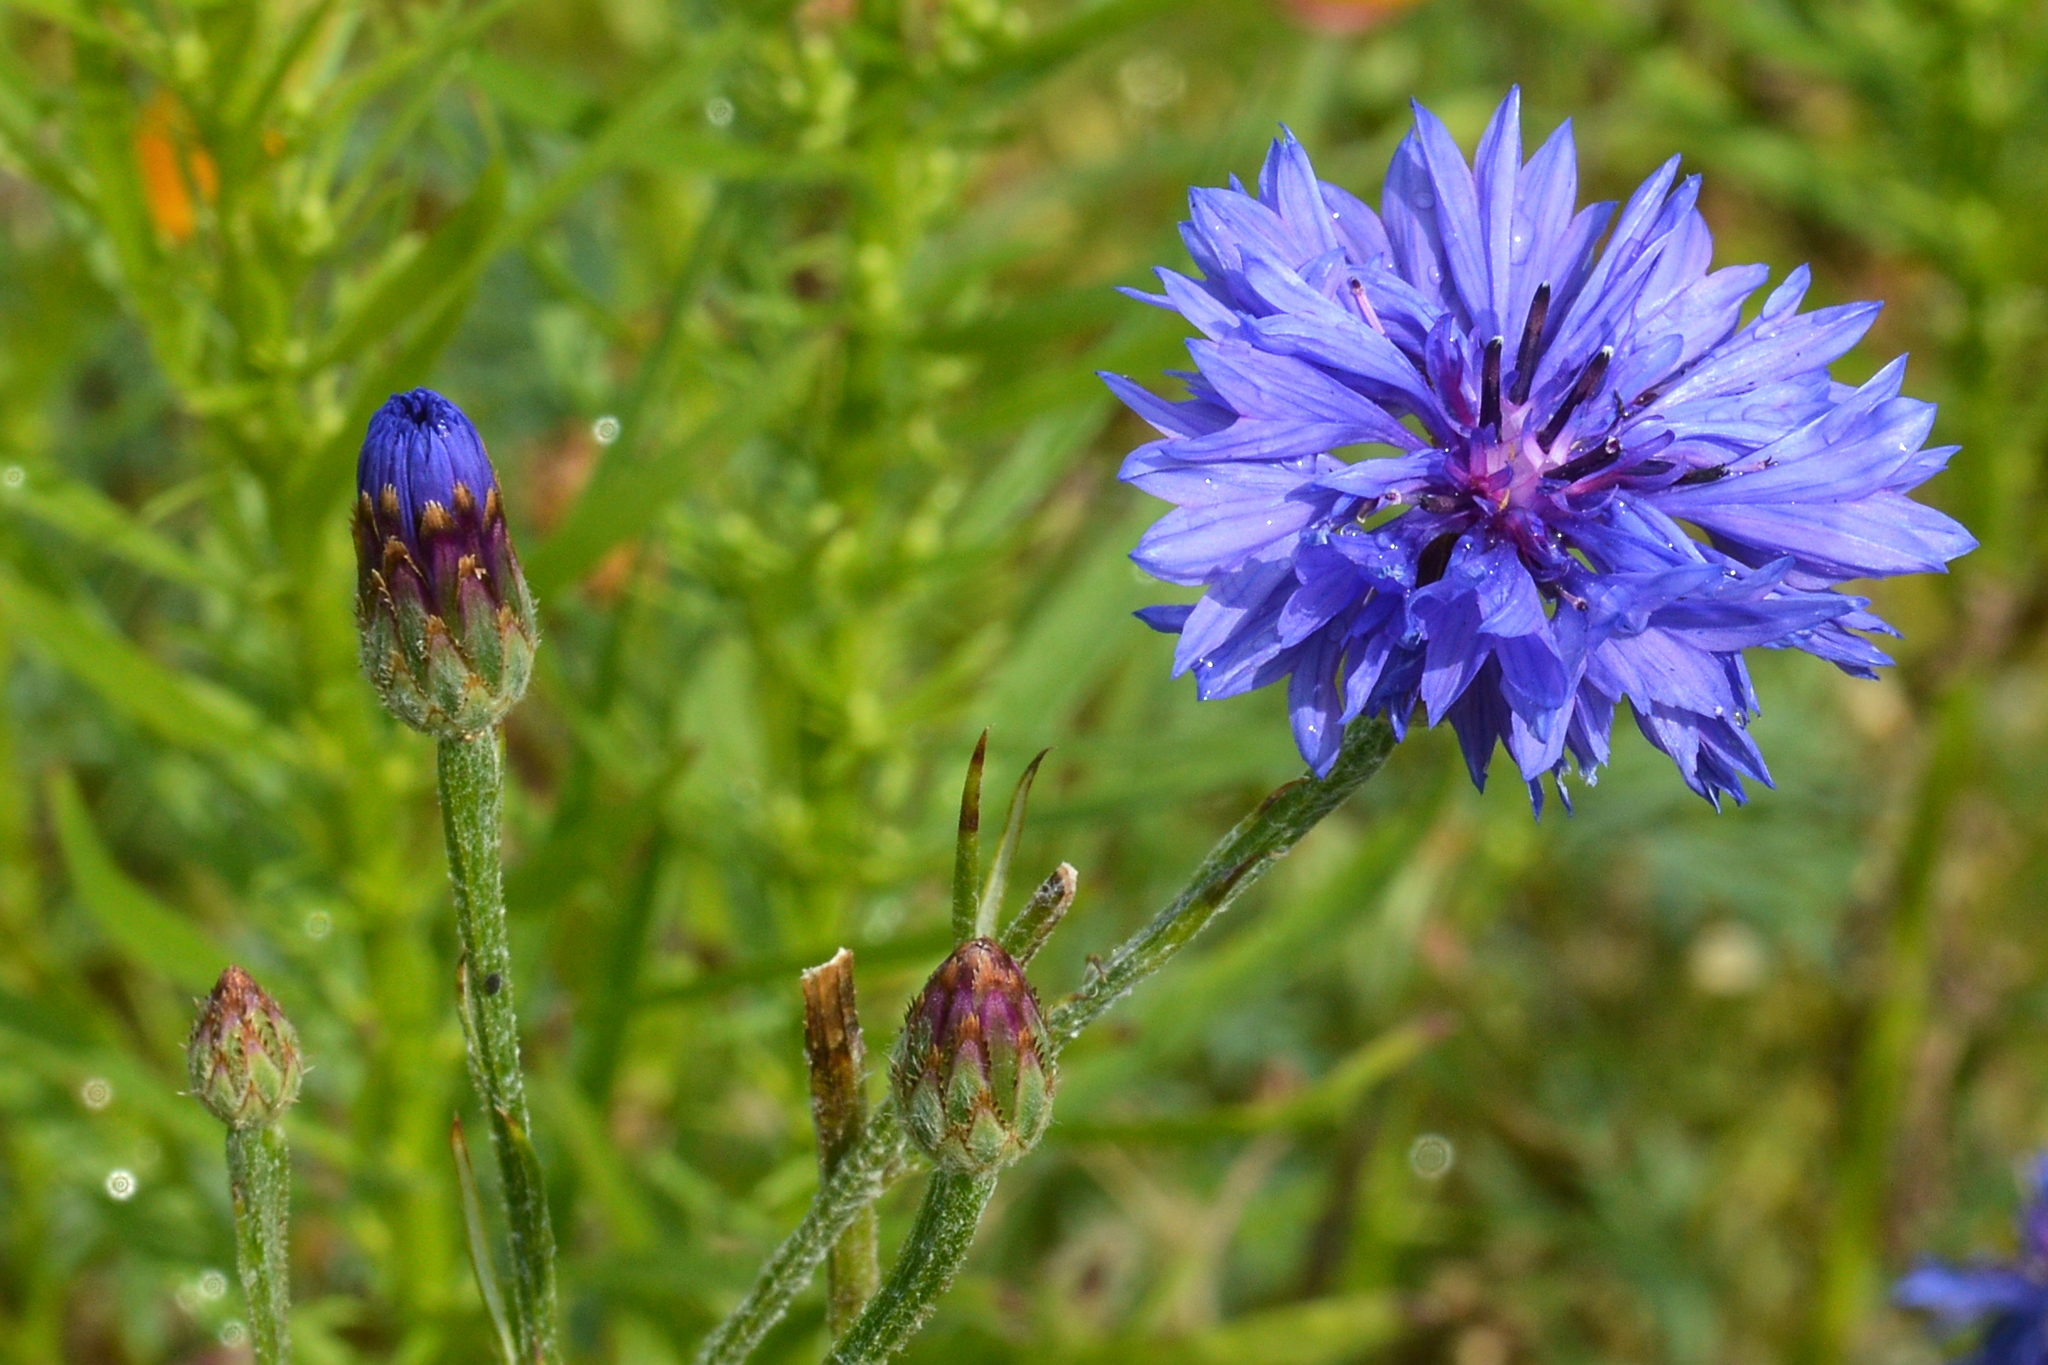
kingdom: Plantae
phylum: Tracheophyta
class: Magnoliopsida
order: Asterales
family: Asteraceae
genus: Centaurea
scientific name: Centaurea cyanus
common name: Cornflower
